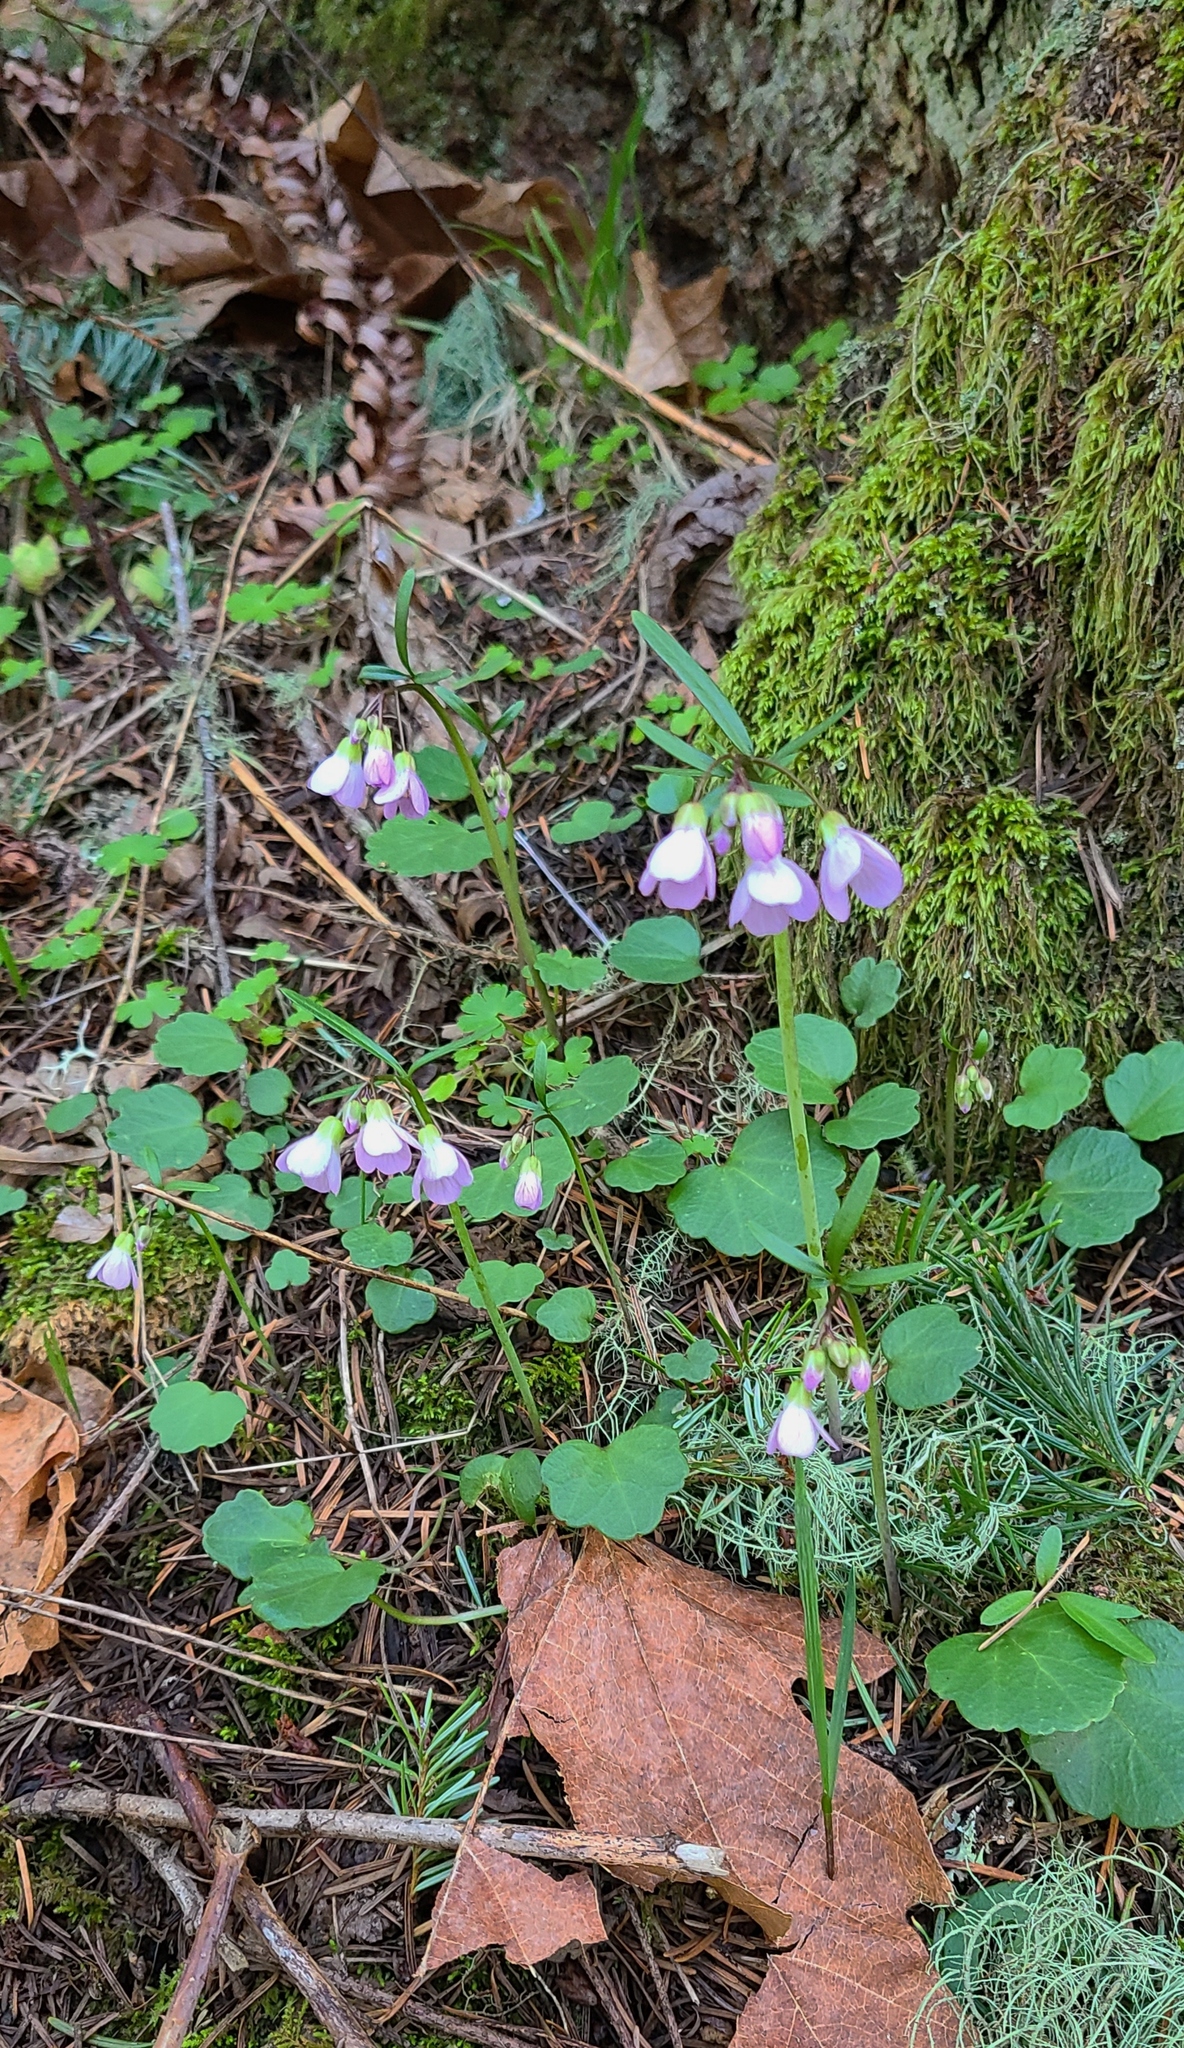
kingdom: Plantae
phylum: Tracheophyta
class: Magnoliopsida
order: Brassicales
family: Brassicaceae
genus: Cardamine
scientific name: Cardamine nuttallii
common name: Nuttall's toothwort
